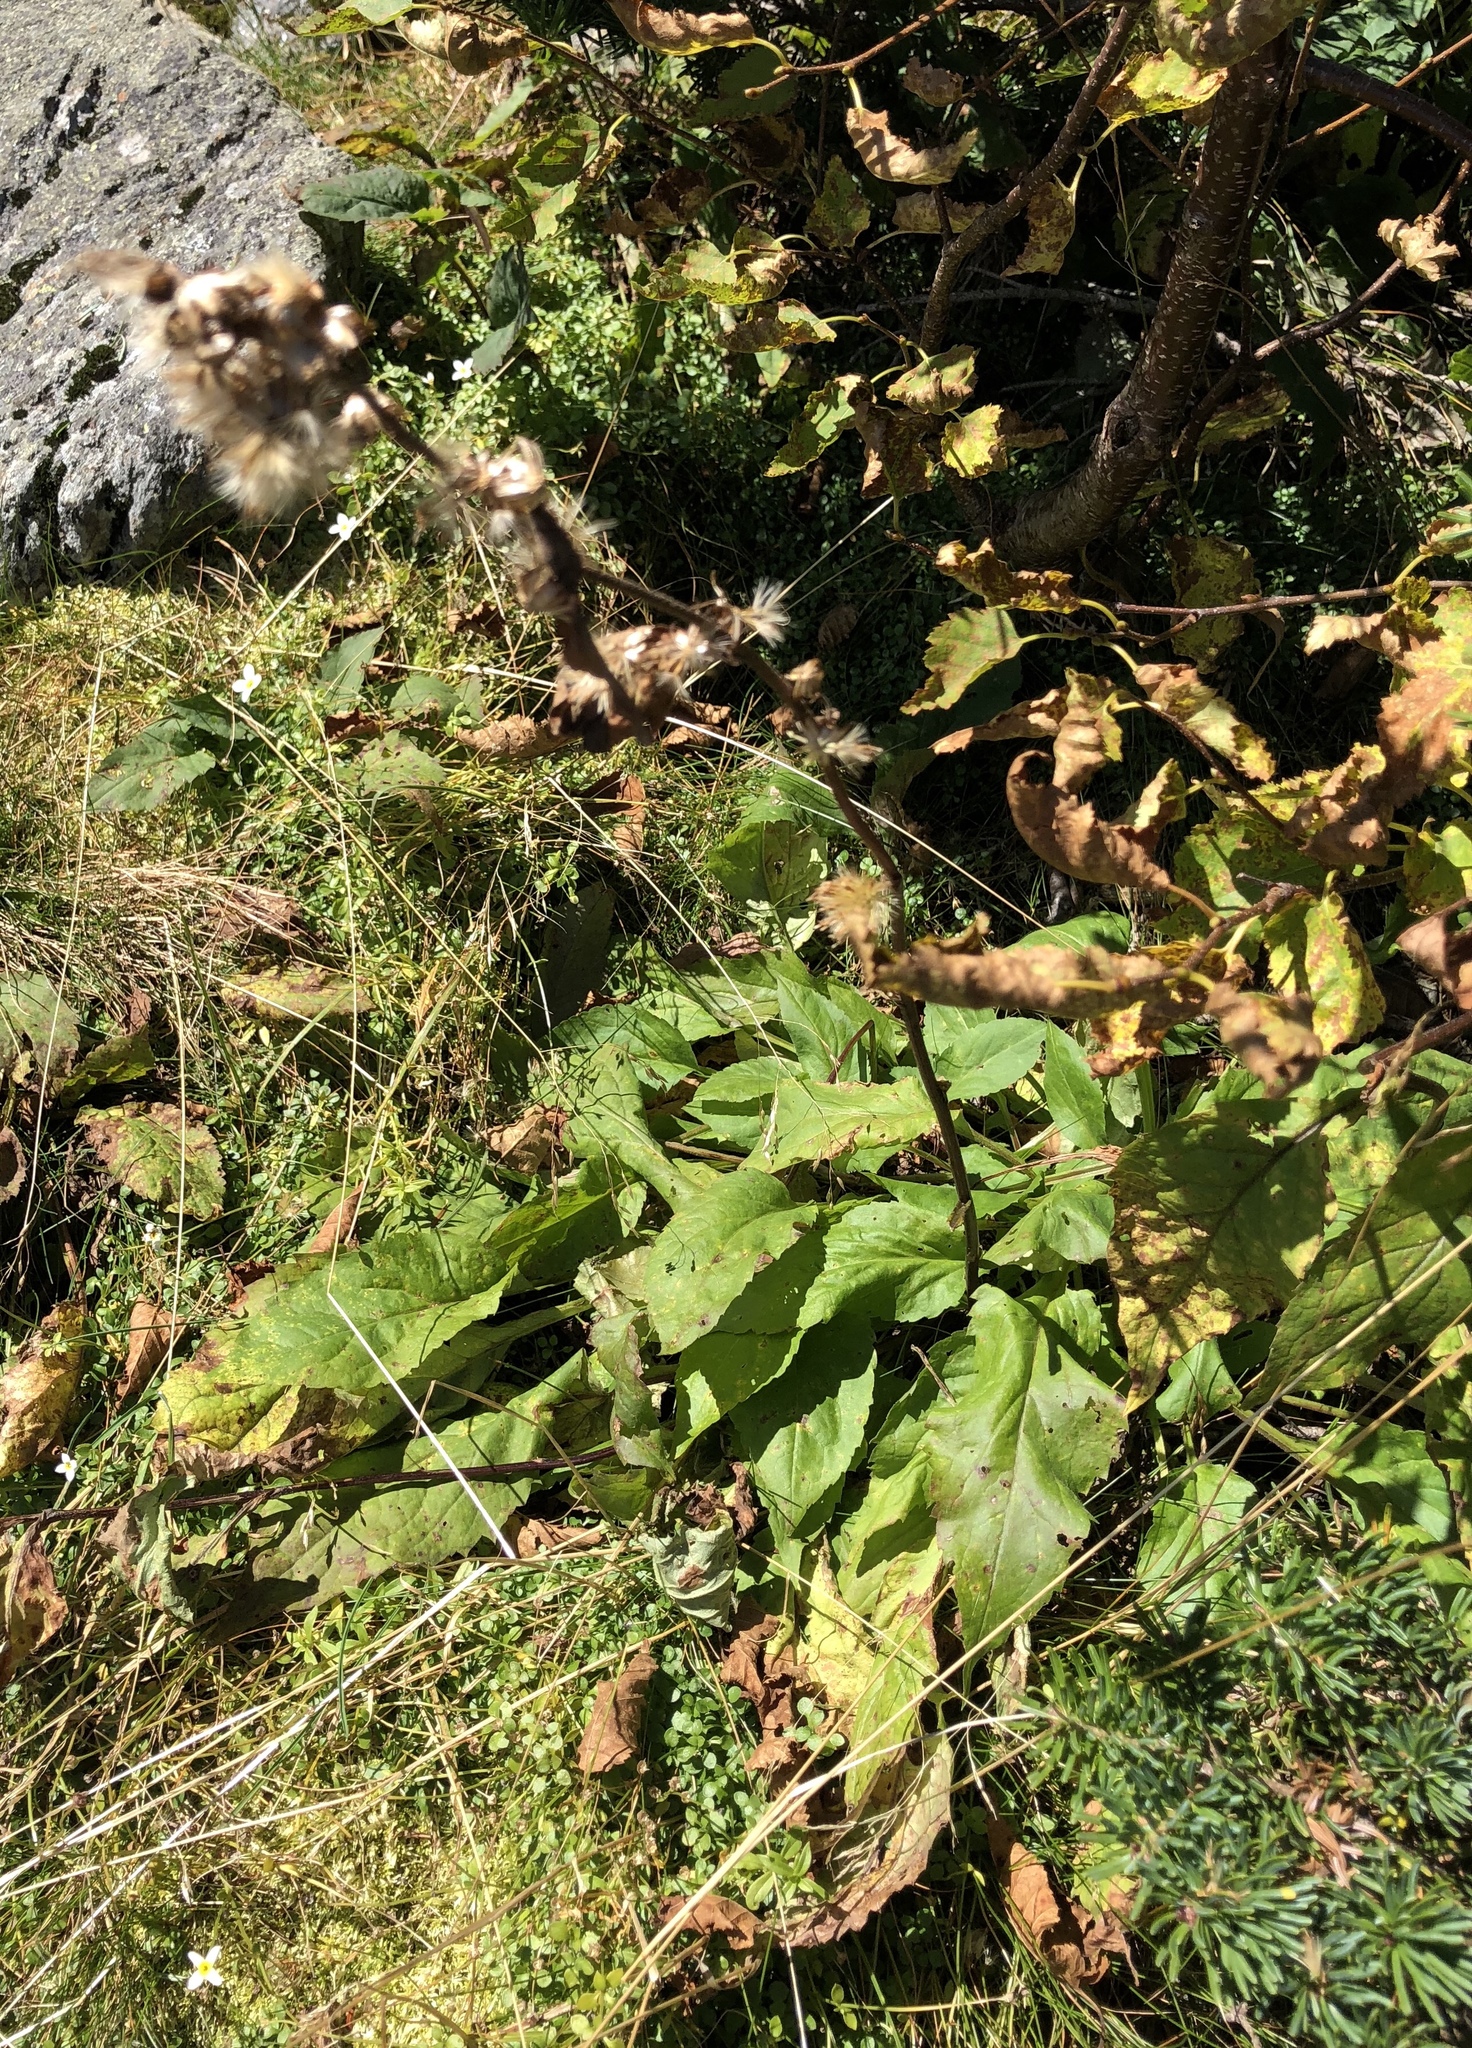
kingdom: Plantae
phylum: Tracheophyta
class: Magnoliopsida
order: Asterales
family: Asteraceae
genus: Solidago
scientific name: Solidago macrophylla
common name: Large-leaved goldenrod
